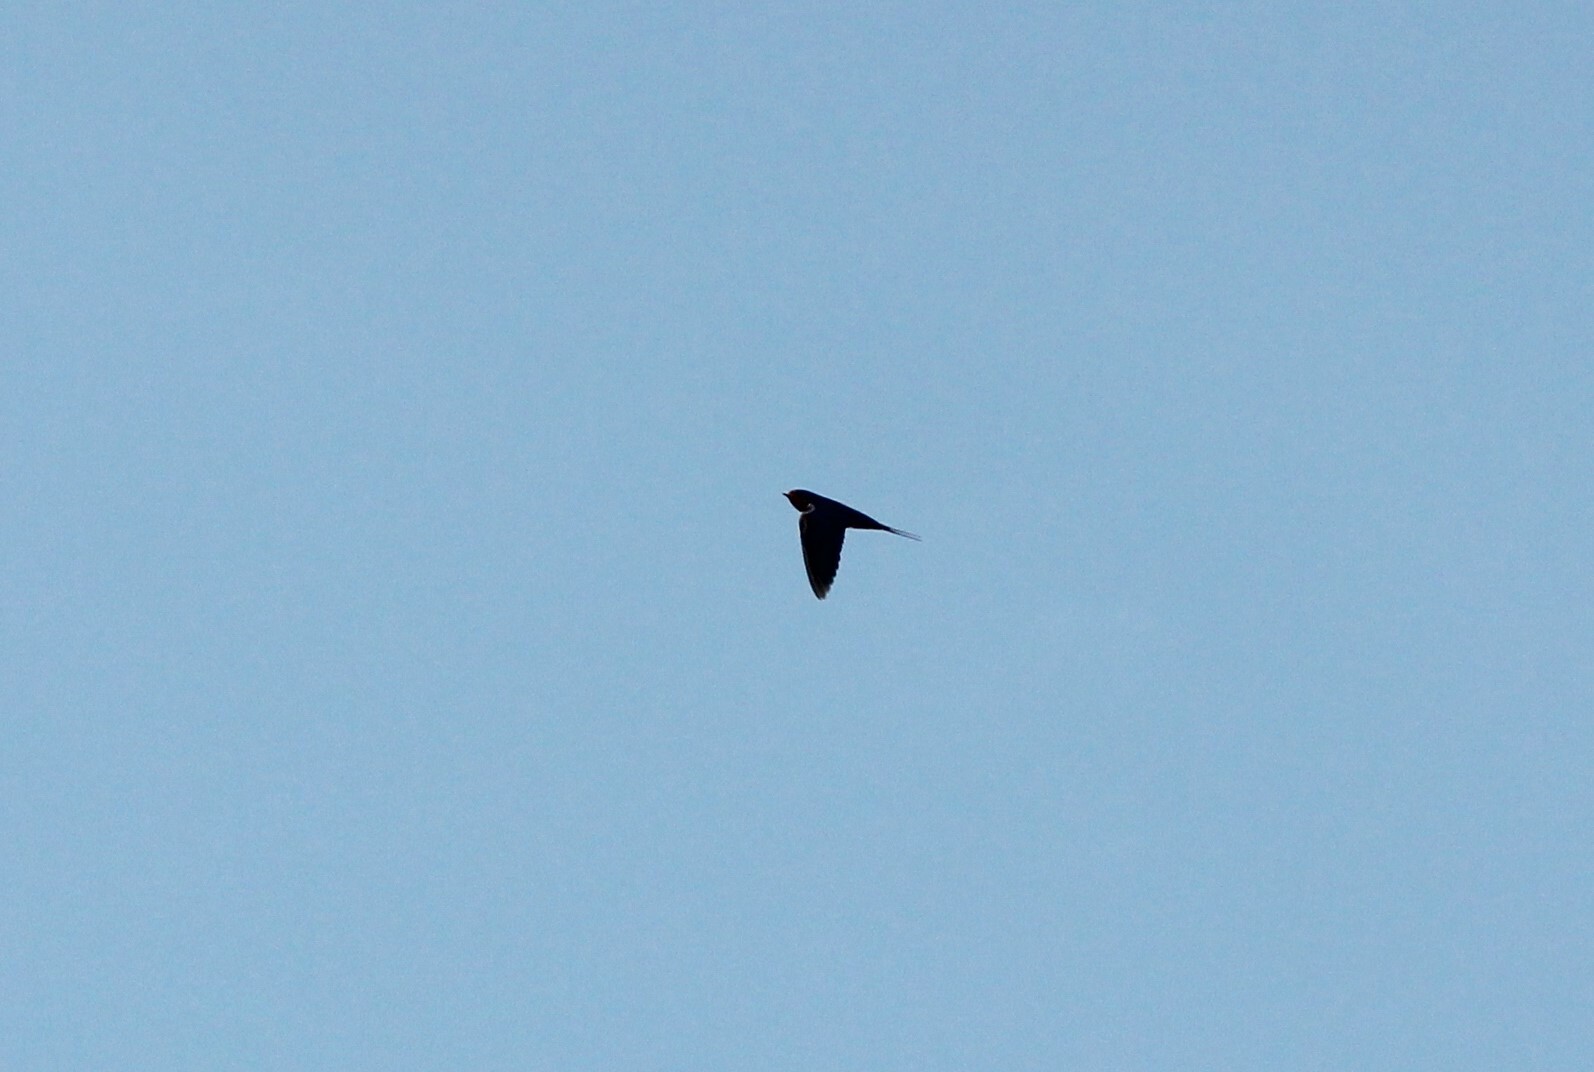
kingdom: Animalia
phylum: Chordata
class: Aves
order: Passeriformes
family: Hirundinidae
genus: Hirundo
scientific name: Hirundo rustica
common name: Barn swallow
